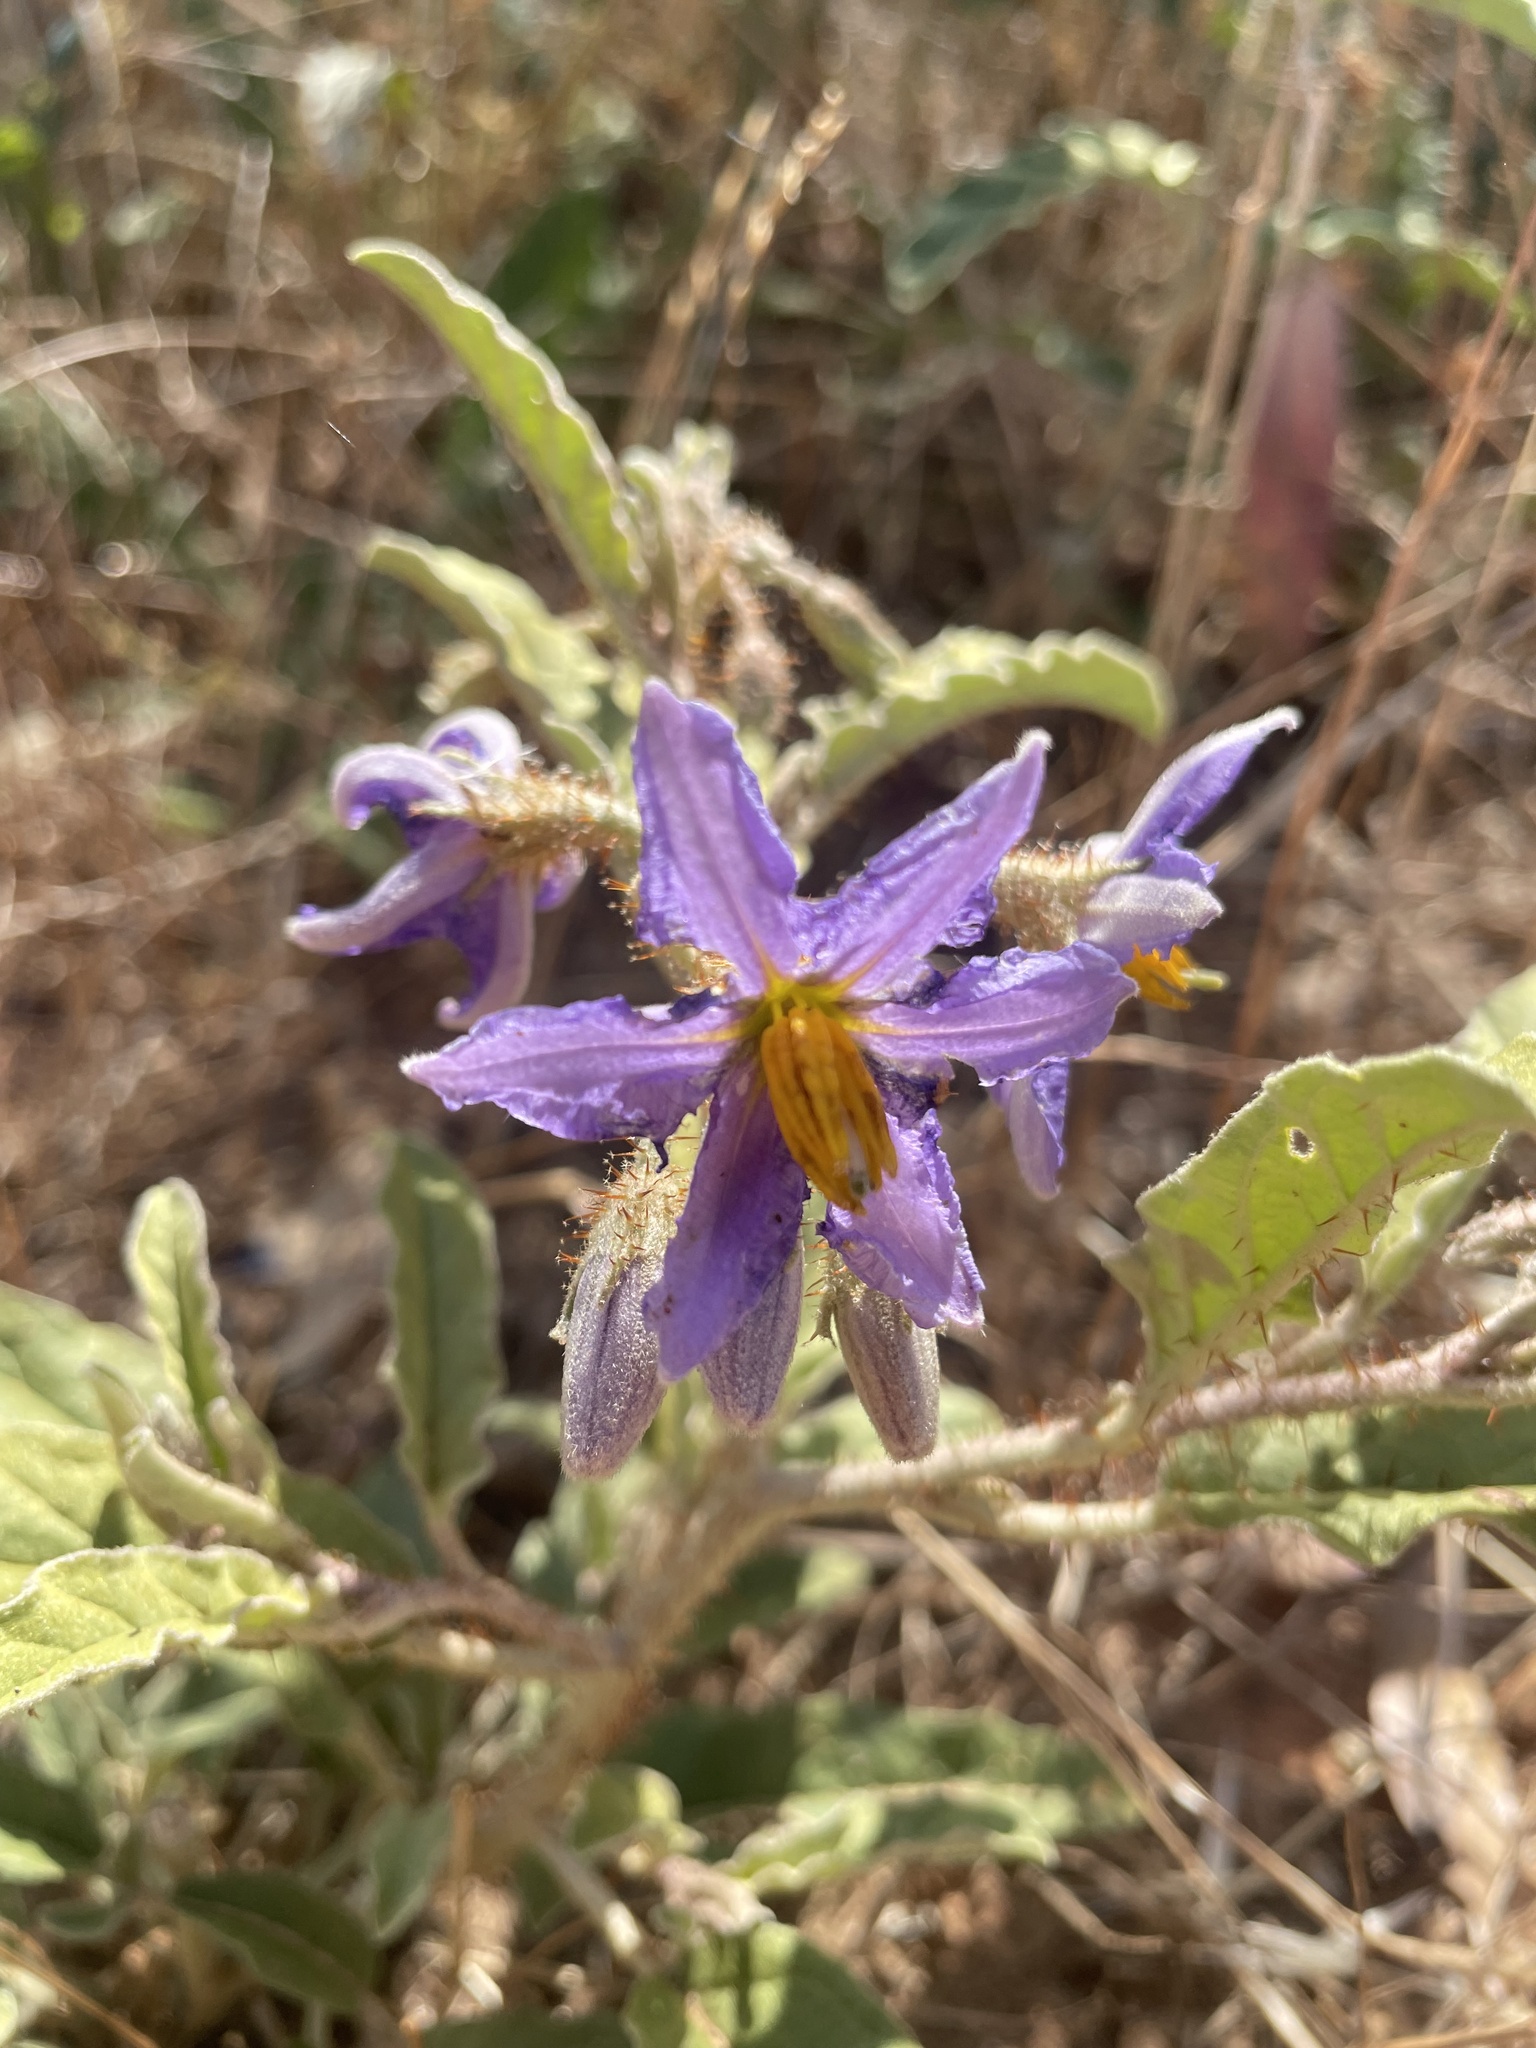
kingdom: Plantae
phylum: Tracheophyta
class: Magnoliopsida
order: Solanales
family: Solanaceae
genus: Solanum
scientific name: Solanum elaeagnifolium
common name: Silverleaf nightshade
